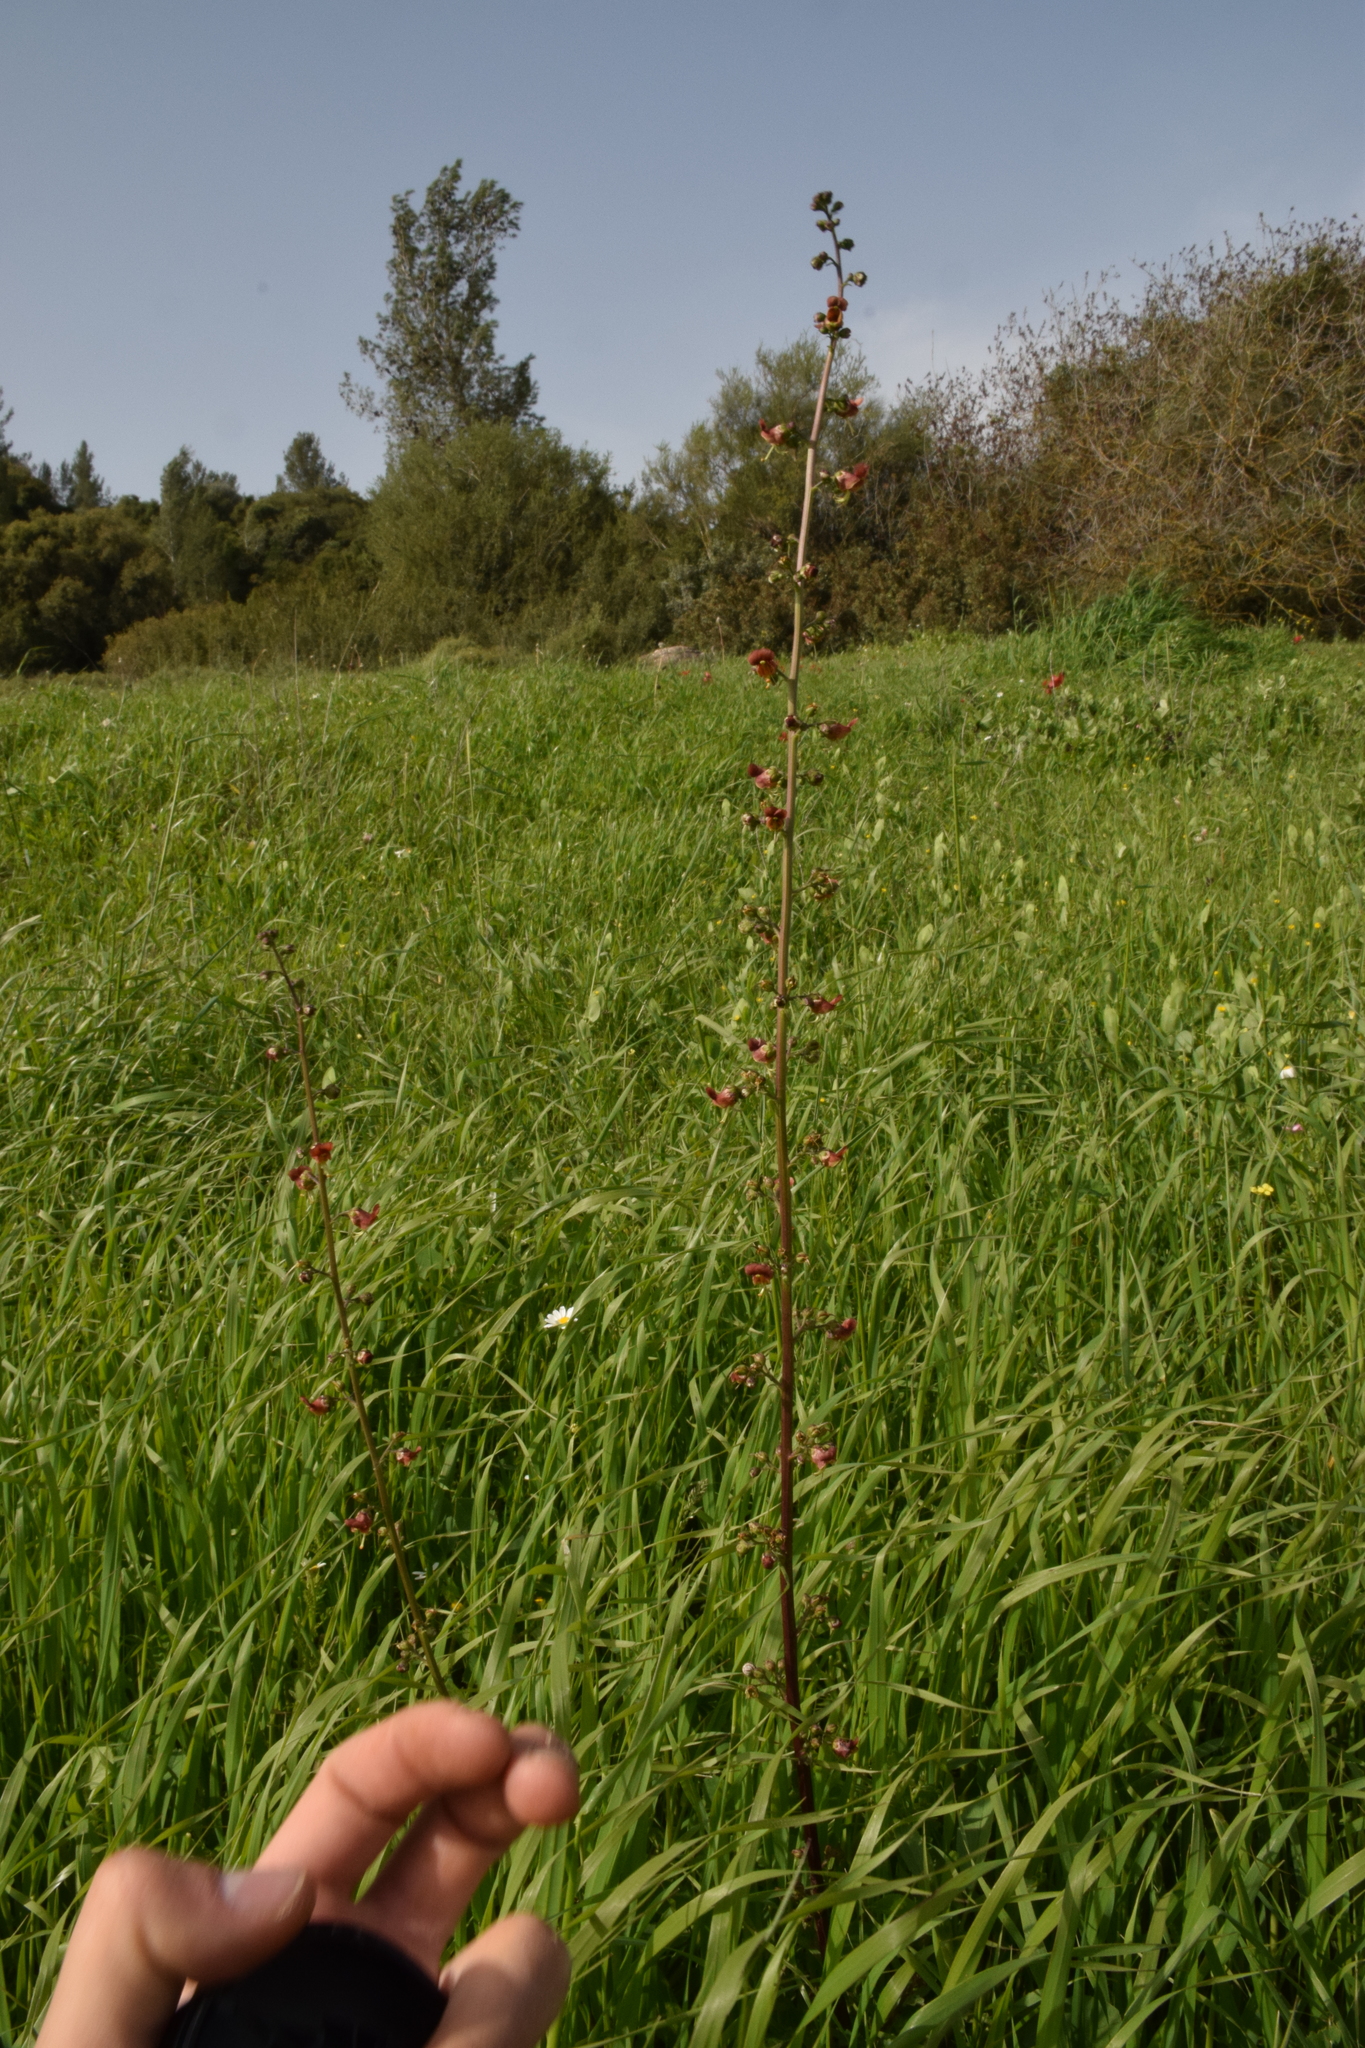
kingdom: Plantae
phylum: Tracheophyta
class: Magnoliopsida
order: Lamiales
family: Scrophulariaceae
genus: Scrophularia
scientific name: Scrophularia rubricaulis
